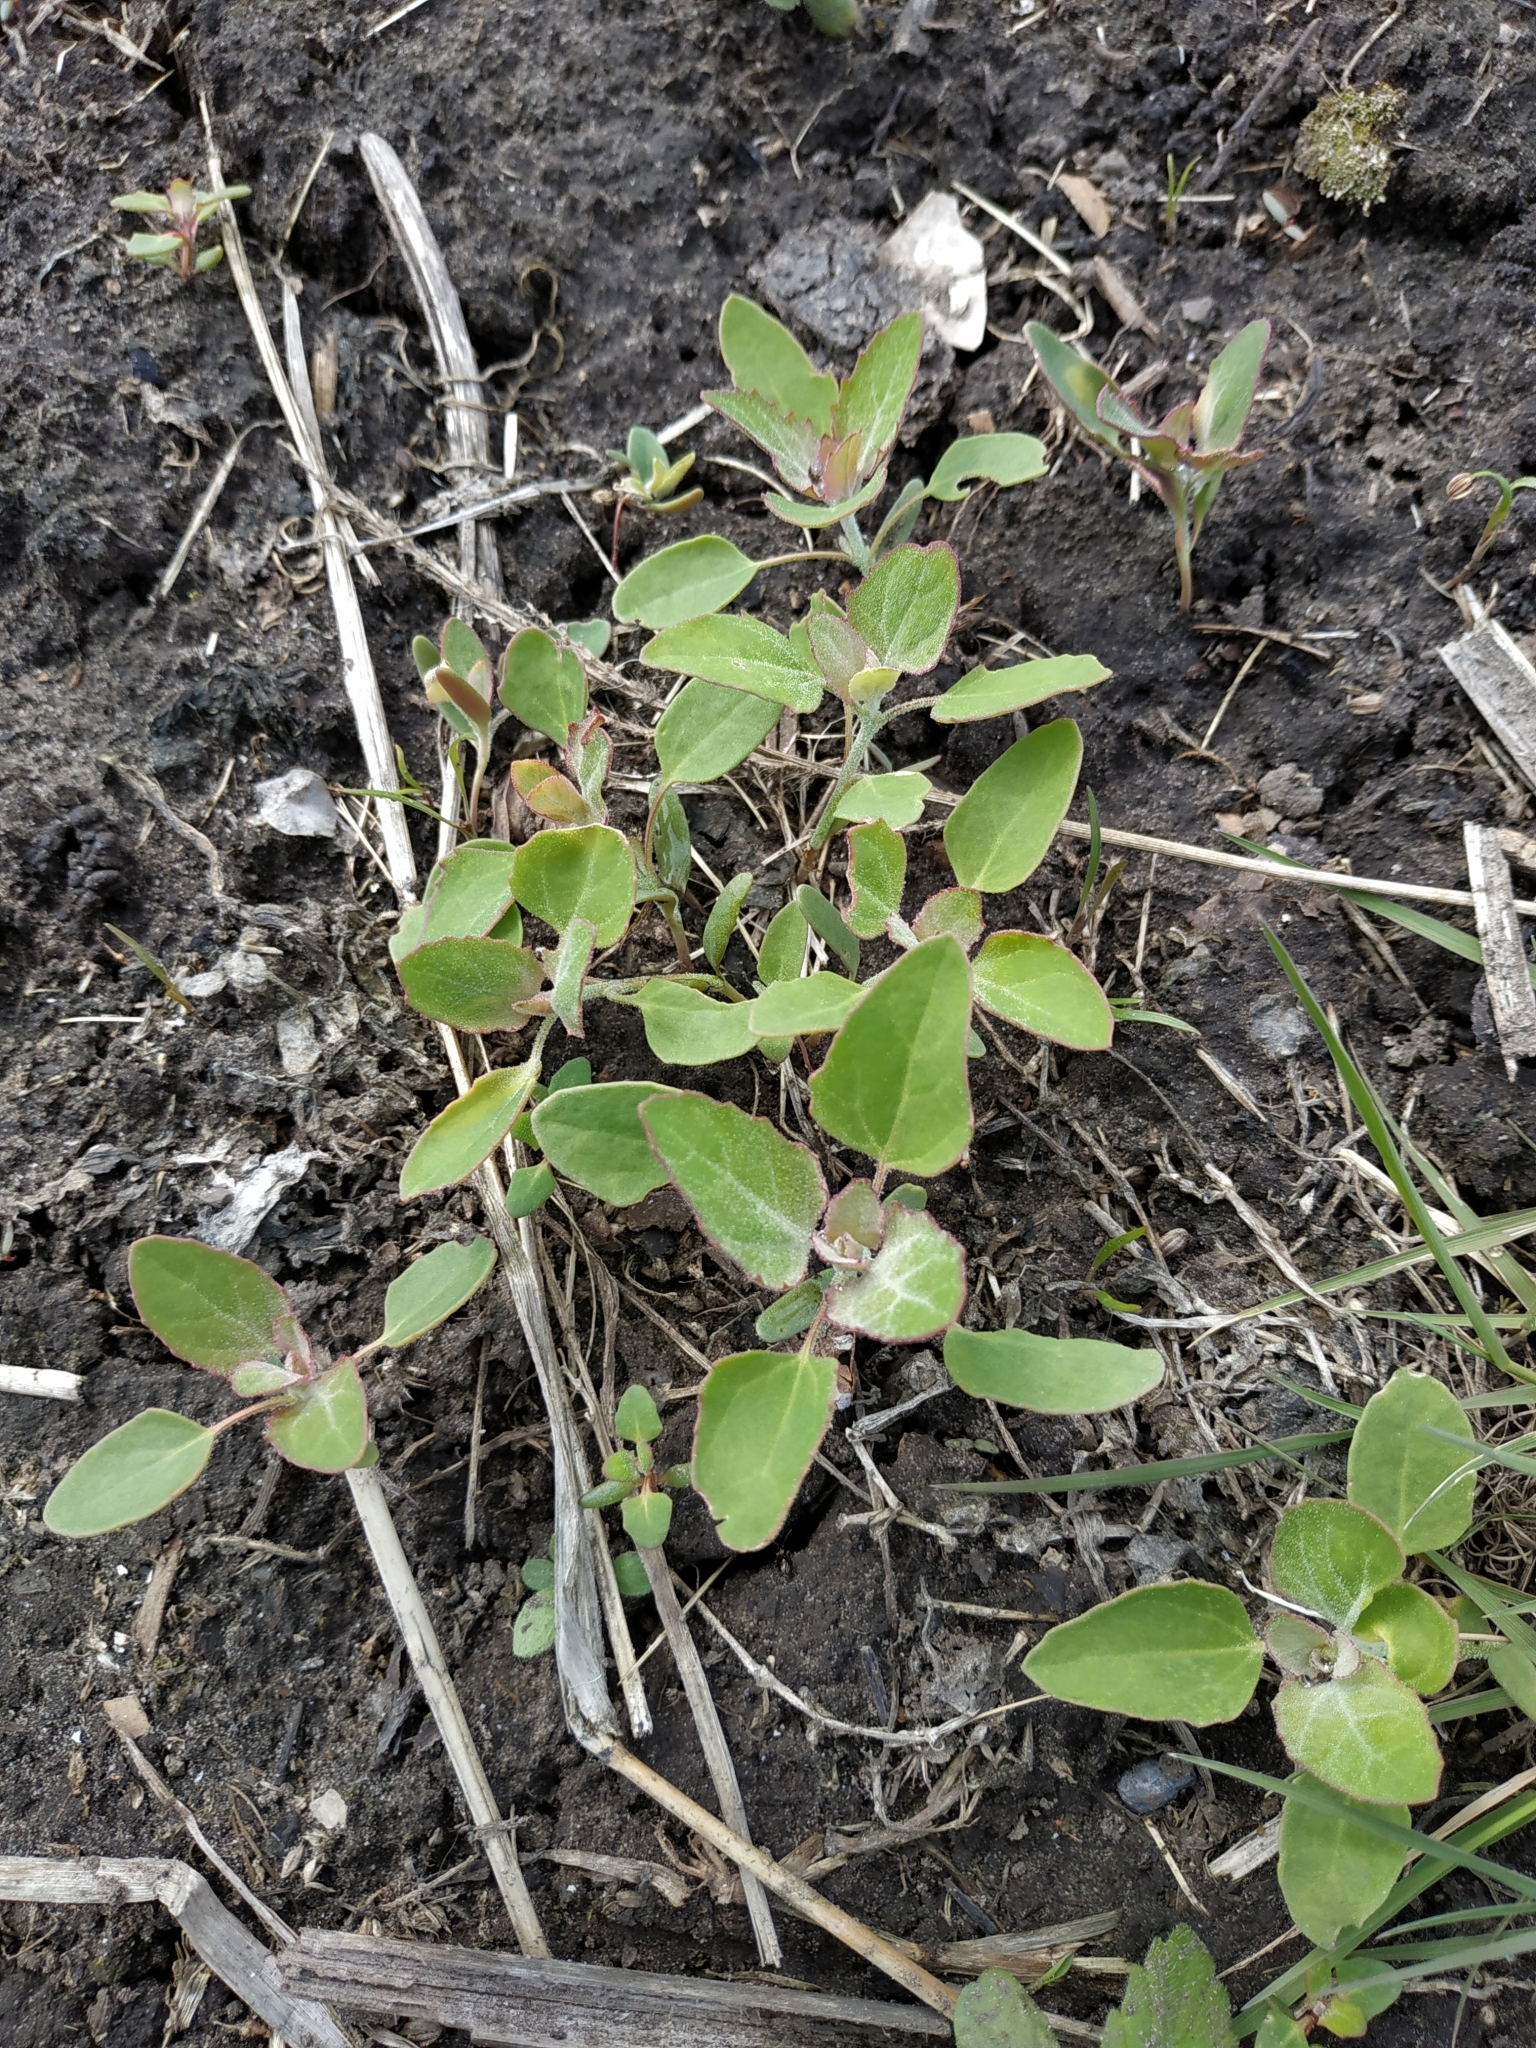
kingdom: Plantae
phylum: Tracheophyta
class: Magnoliopsida
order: Caryophyllales
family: Amaranthaceae
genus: Chenopodium
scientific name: Chenopodium album
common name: Fat-hen
